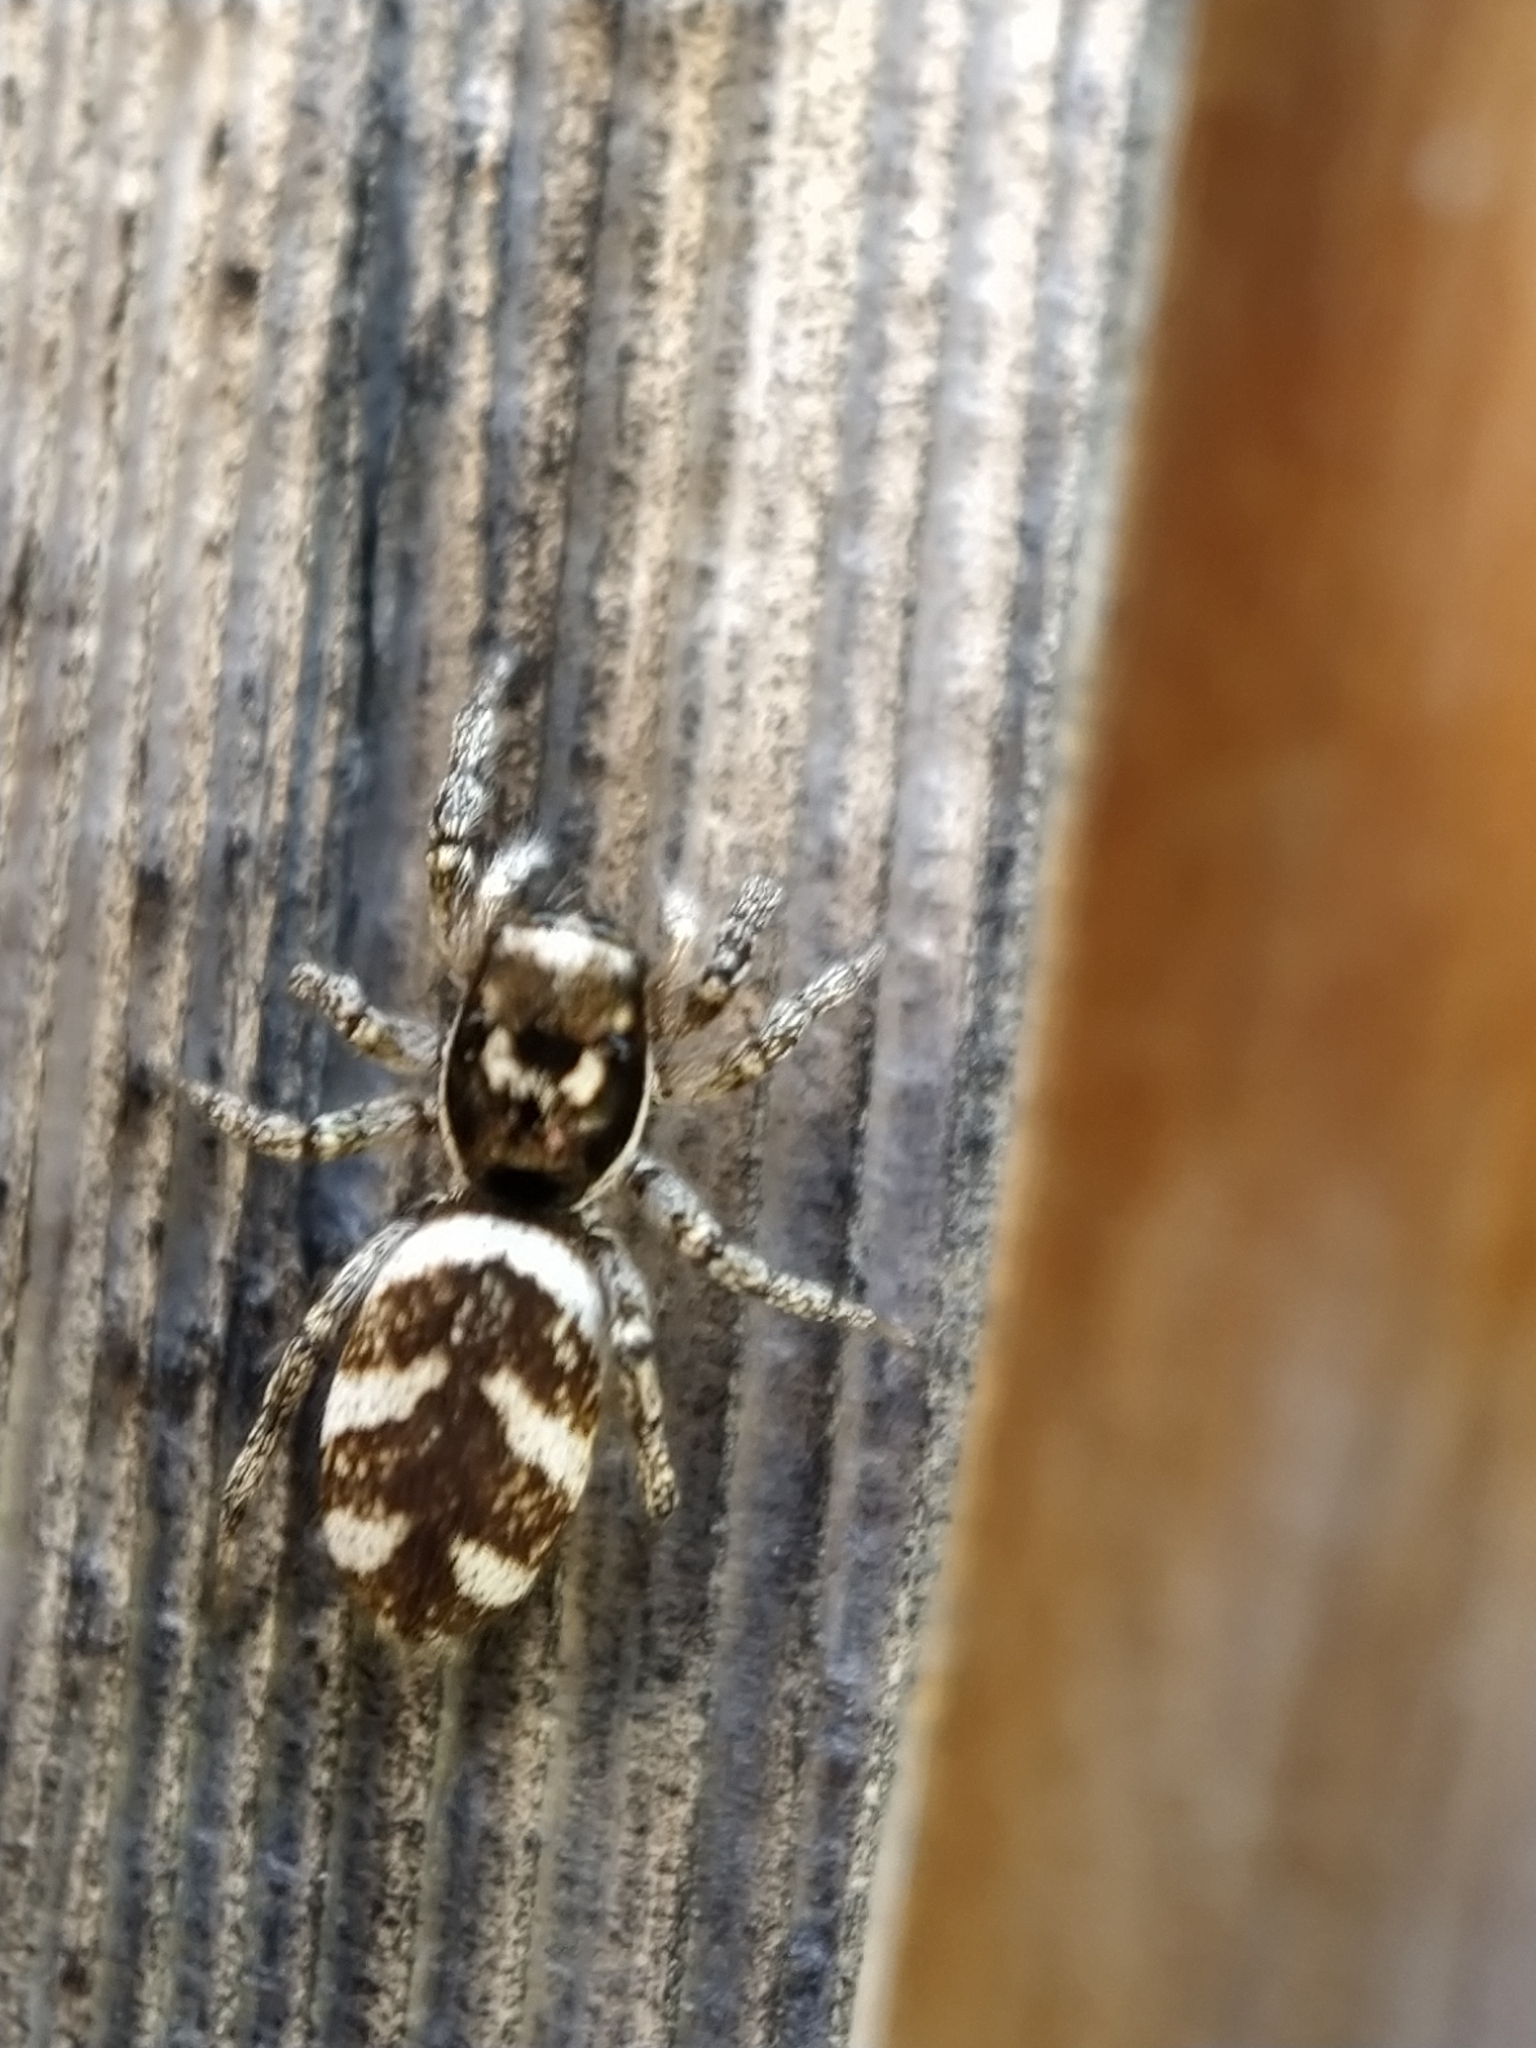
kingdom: Animalia
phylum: Arthropoda
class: Arachnida
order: Araneae
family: Salticidae
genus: Salticus
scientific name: Salticus scenicus
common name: Zebra jumper
